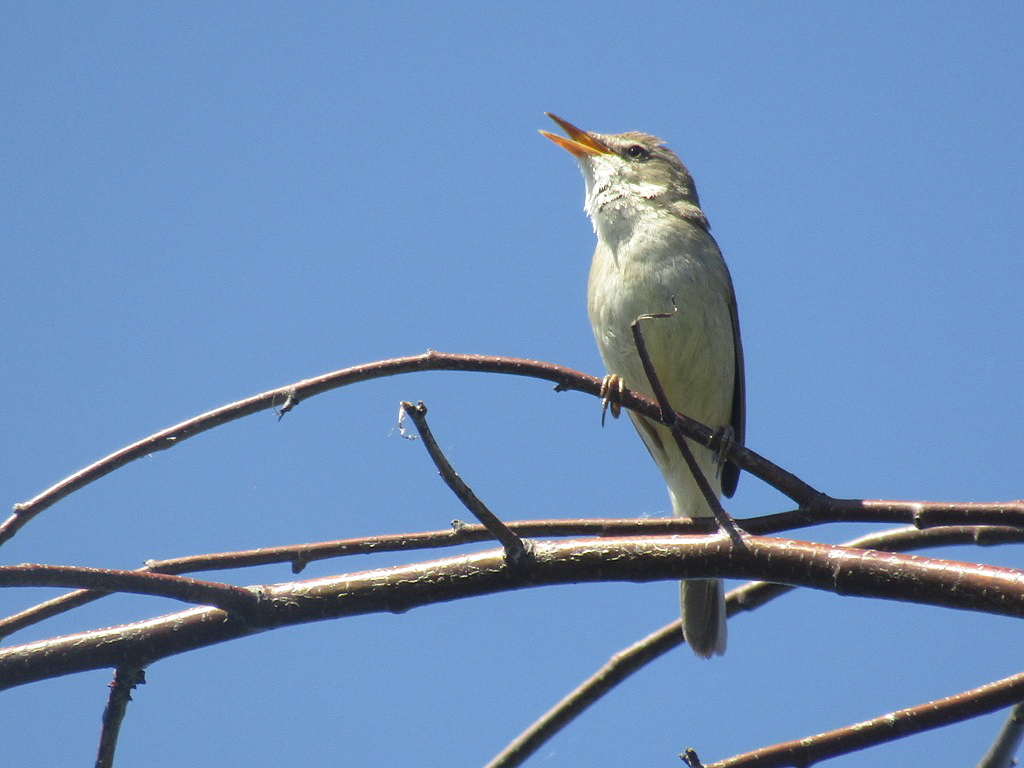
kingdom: Animalia
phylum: Chordata
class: Aves
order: Passeriformes
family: Acrocephalidae
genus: Acrocephalus
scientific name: Acrocephalus dumetorum
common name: Blyth's reed warbler
